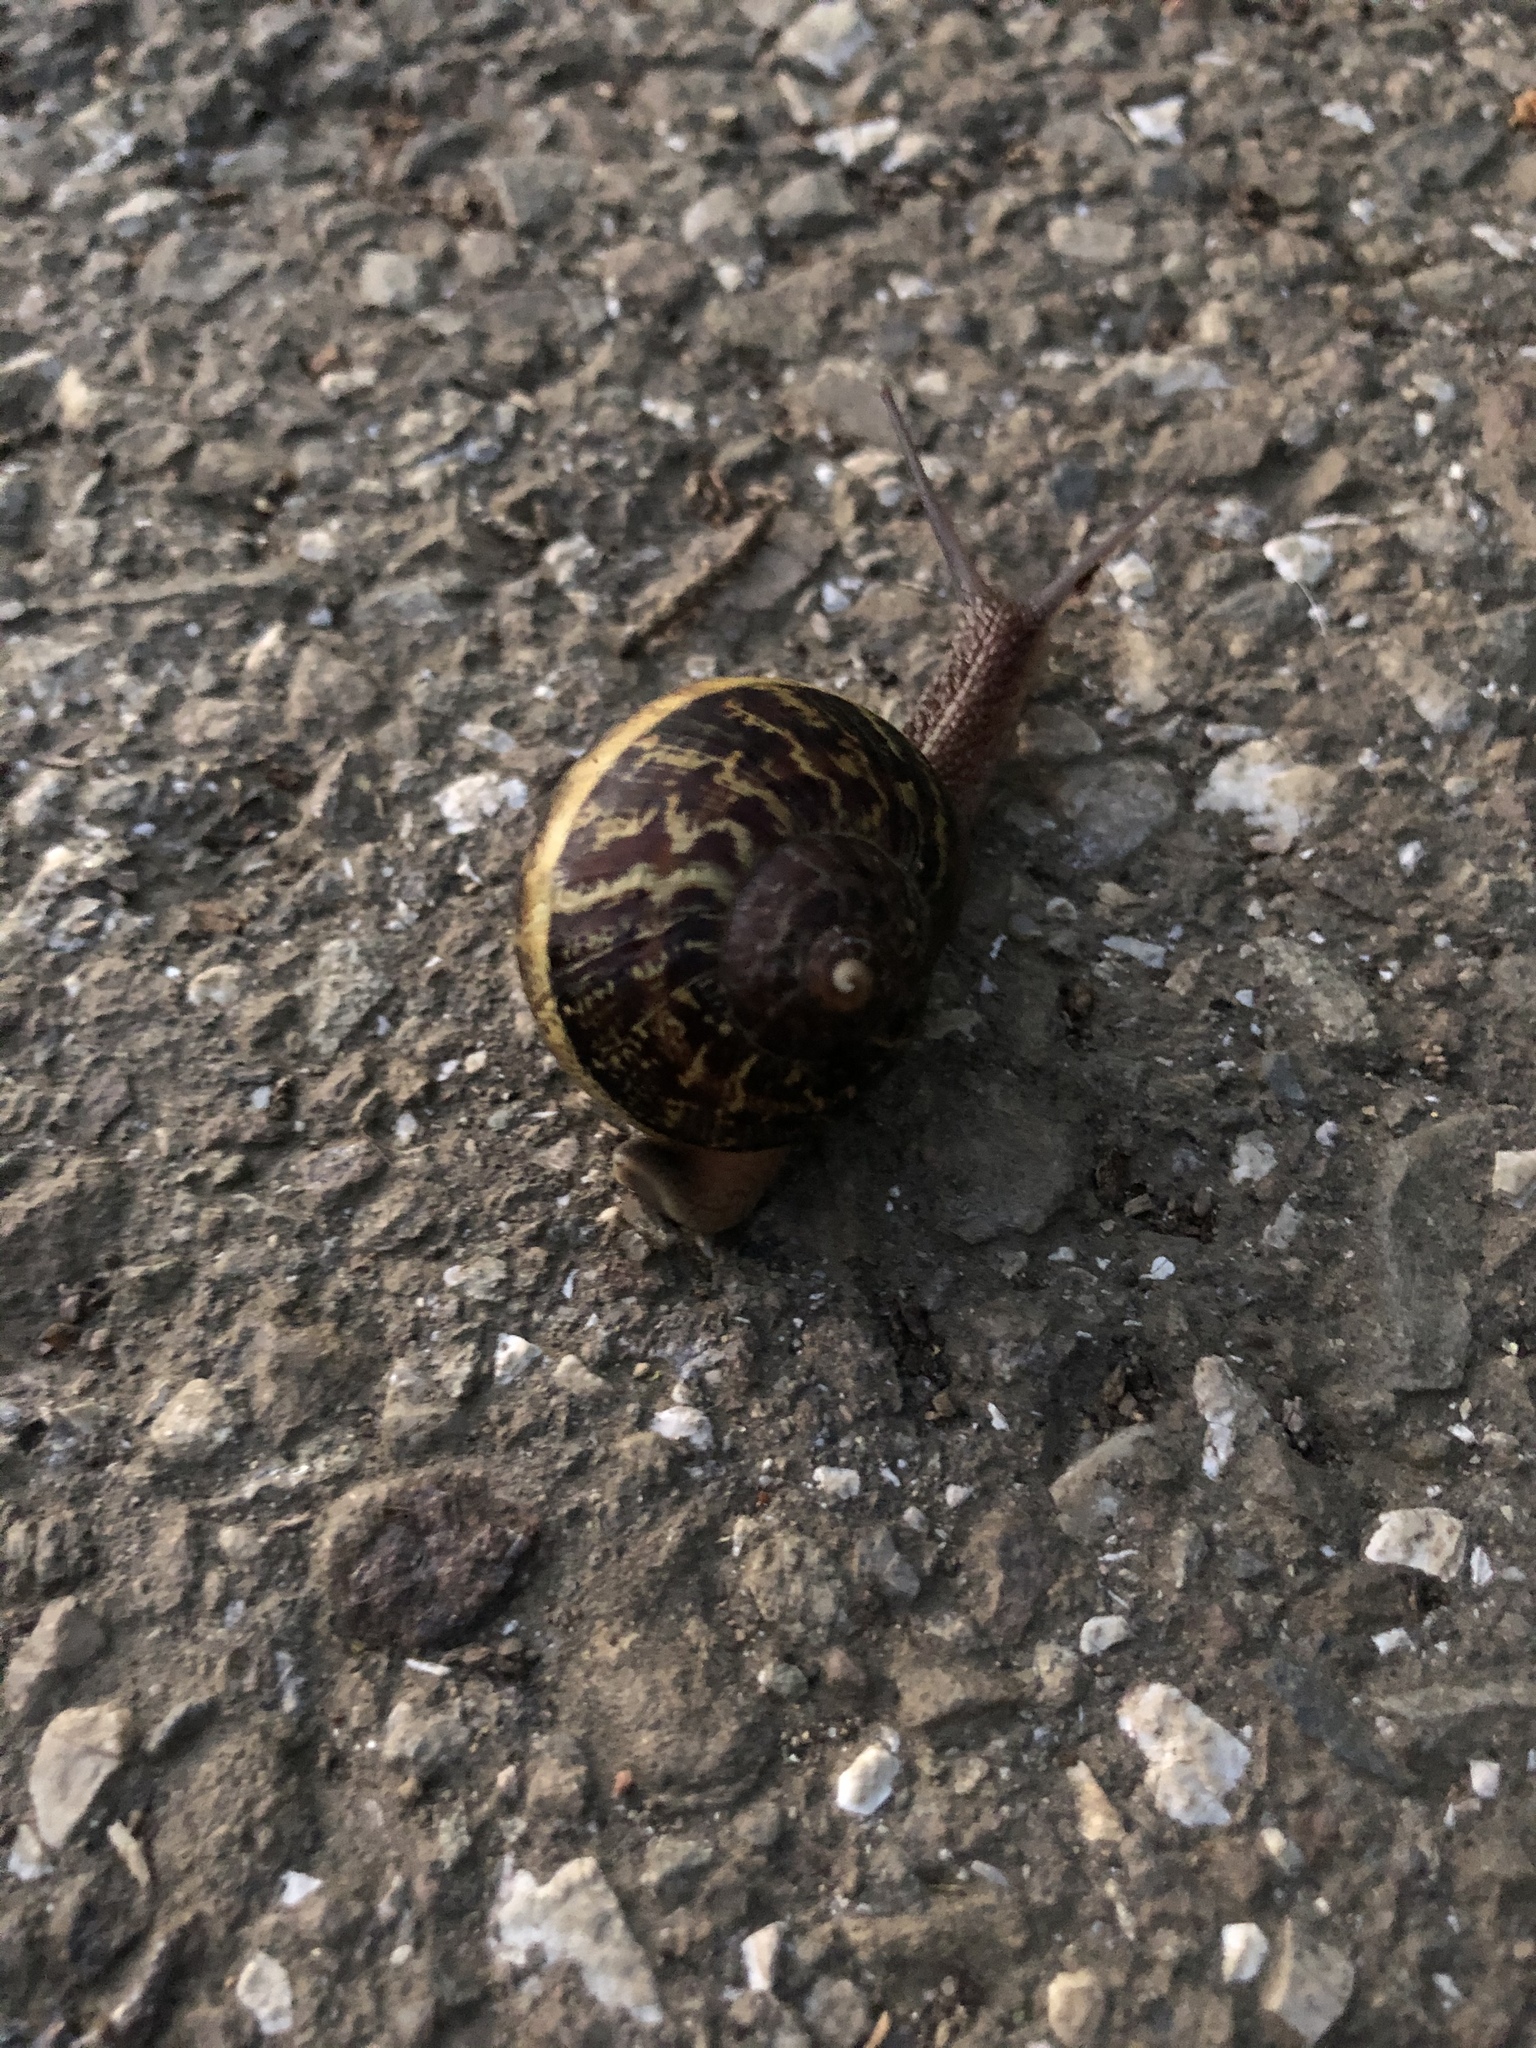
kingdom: Animalia
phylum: Mollusca
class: Gastropoda
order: Stylommatophora
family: Helicidae
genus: Cornu
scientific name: Cornu aspersum
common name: Brown garden snail
